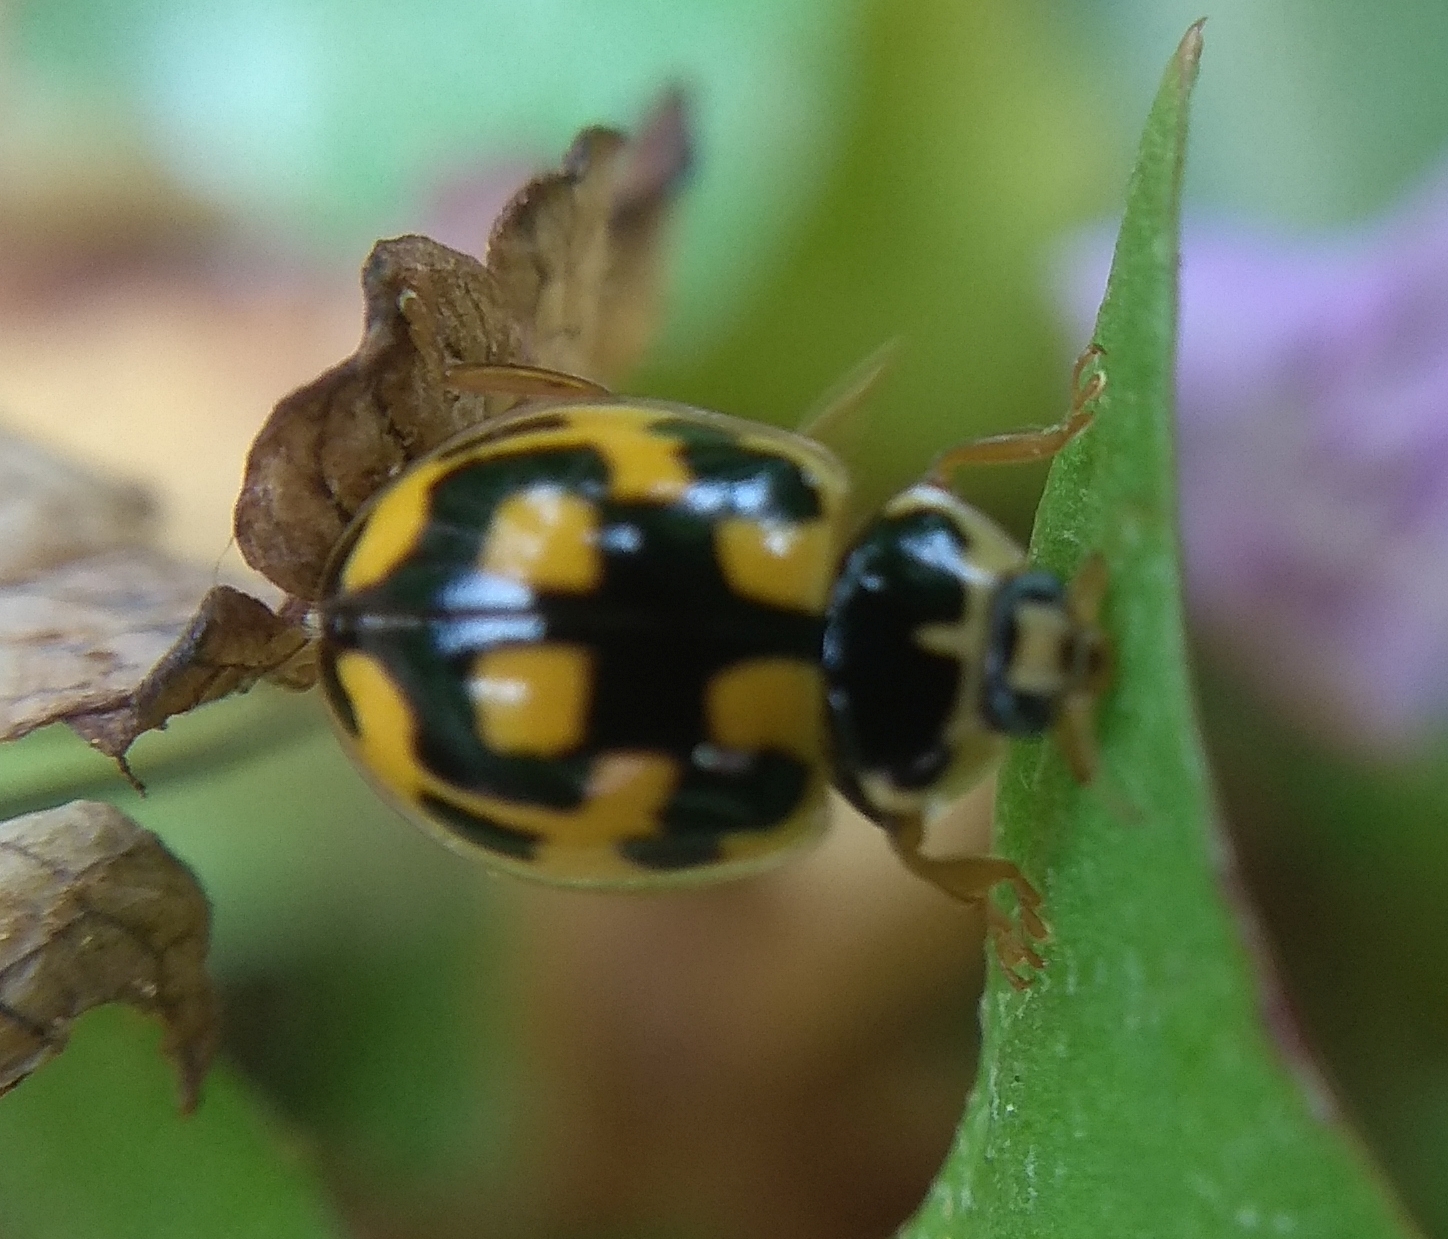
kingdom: Animalia
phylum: Arthropoda
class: Insecta
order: Coleoptera
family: Coccinellidae
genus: Propylaea
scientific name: Propylaea quatuordecimpunctata
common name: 14-spotted ladybird beetle
